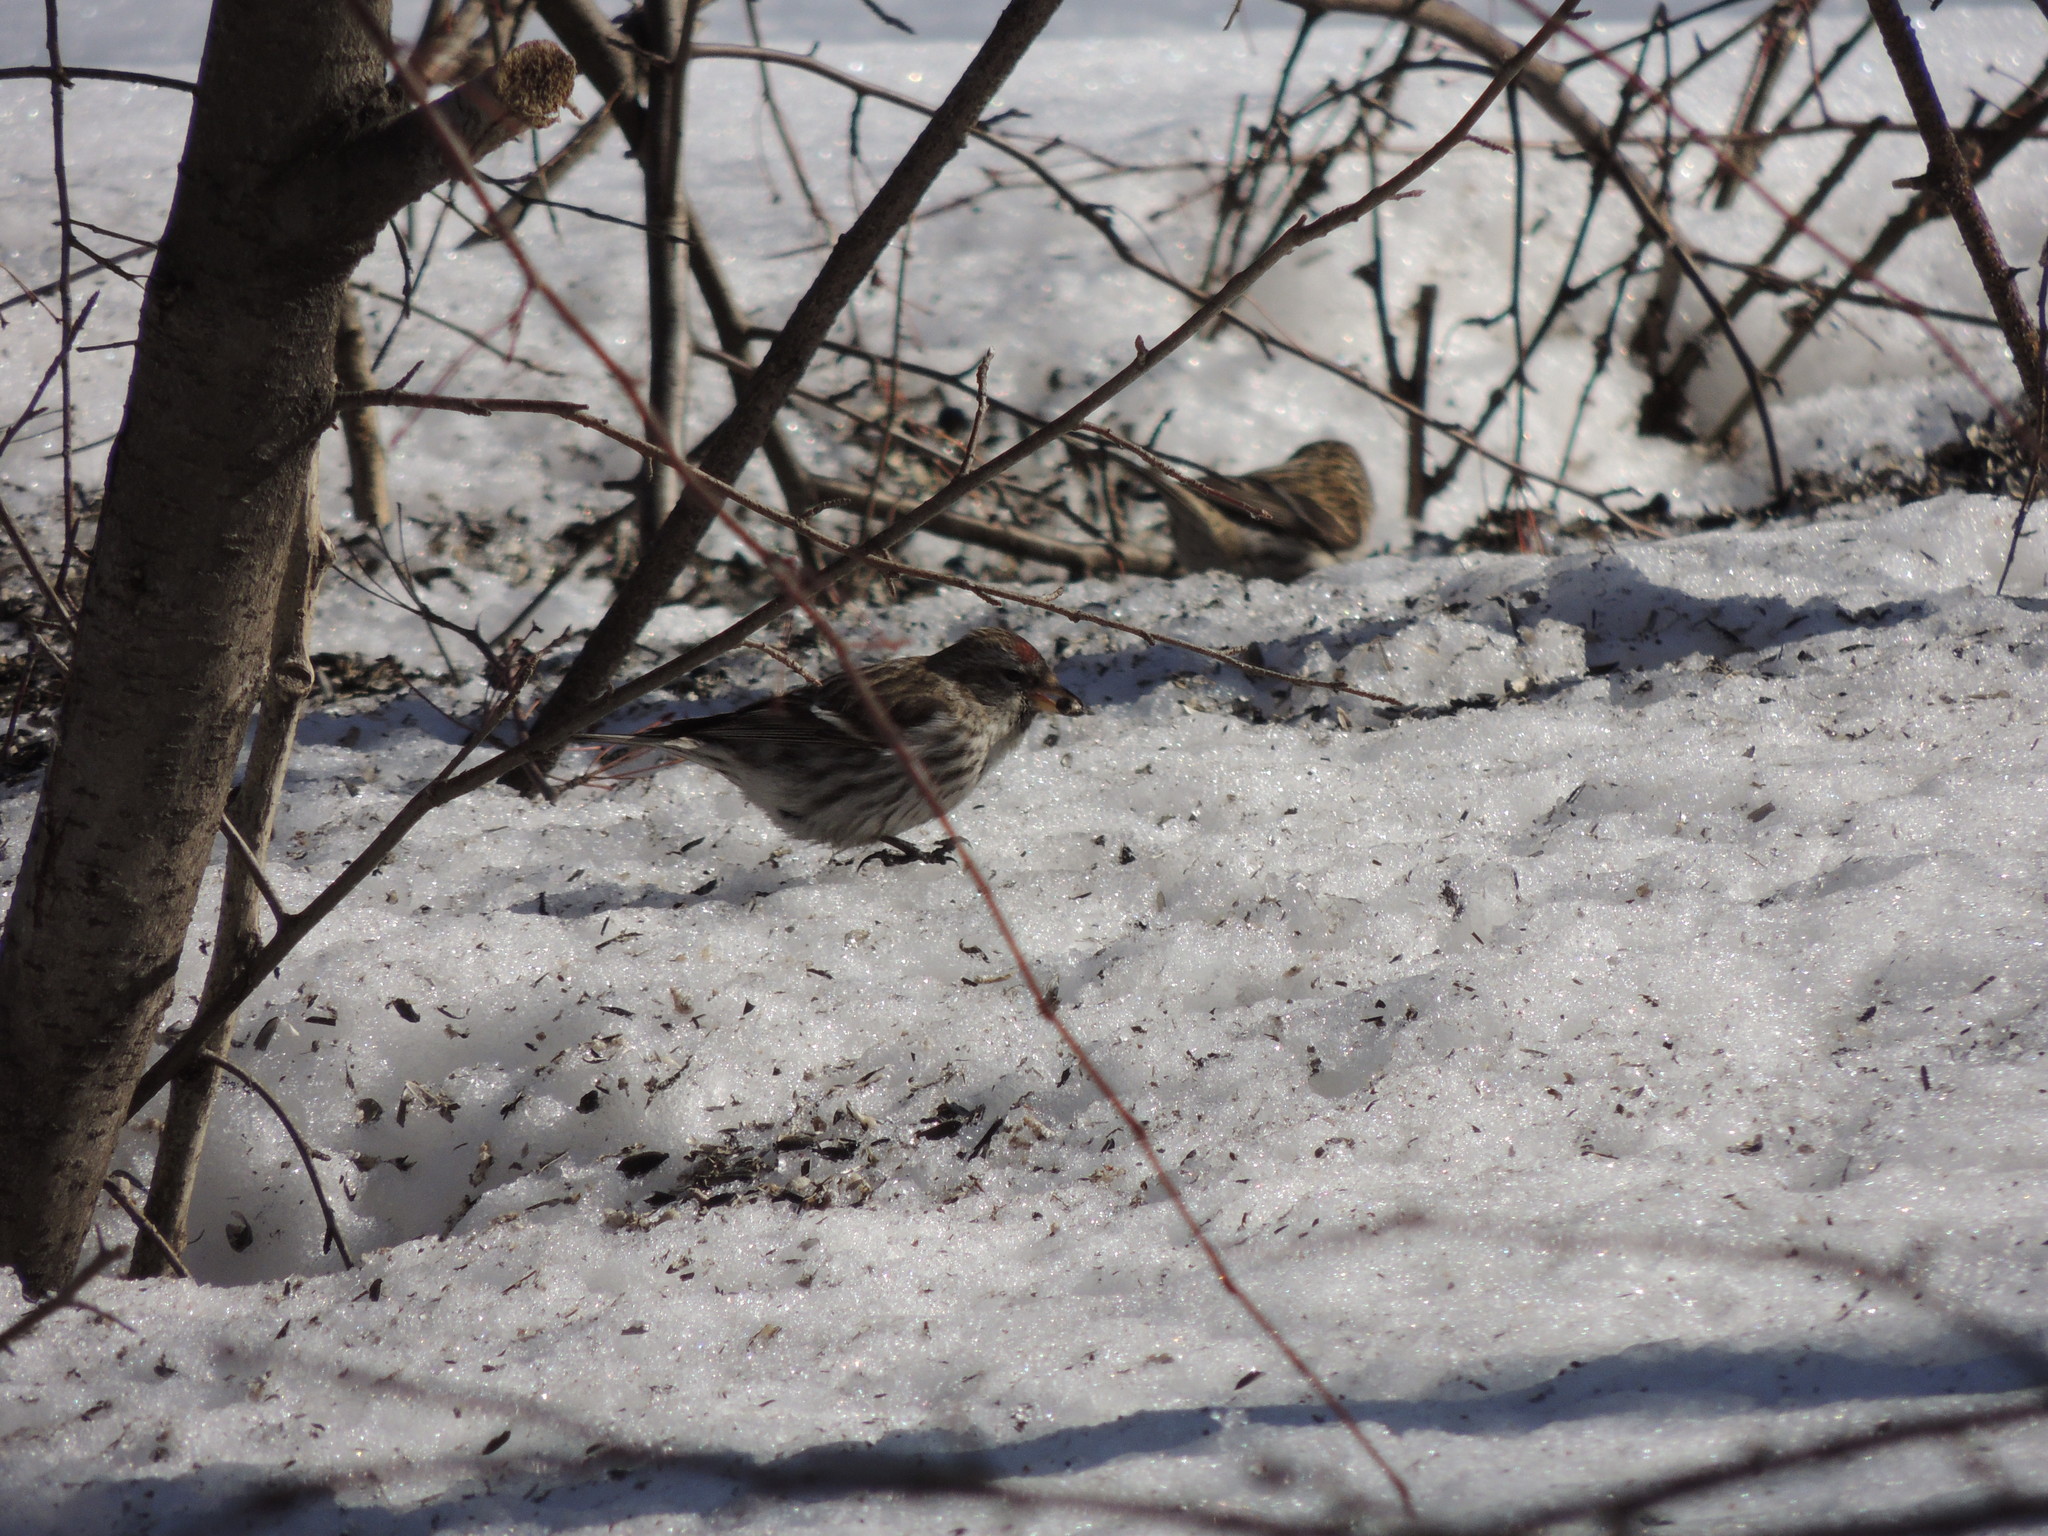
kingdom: Animalia
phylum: Chordata
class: Aves
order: Passeriformes
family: Fringillidae
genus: Acanthis
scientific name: Acanthis flammea
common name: Common redpoll
